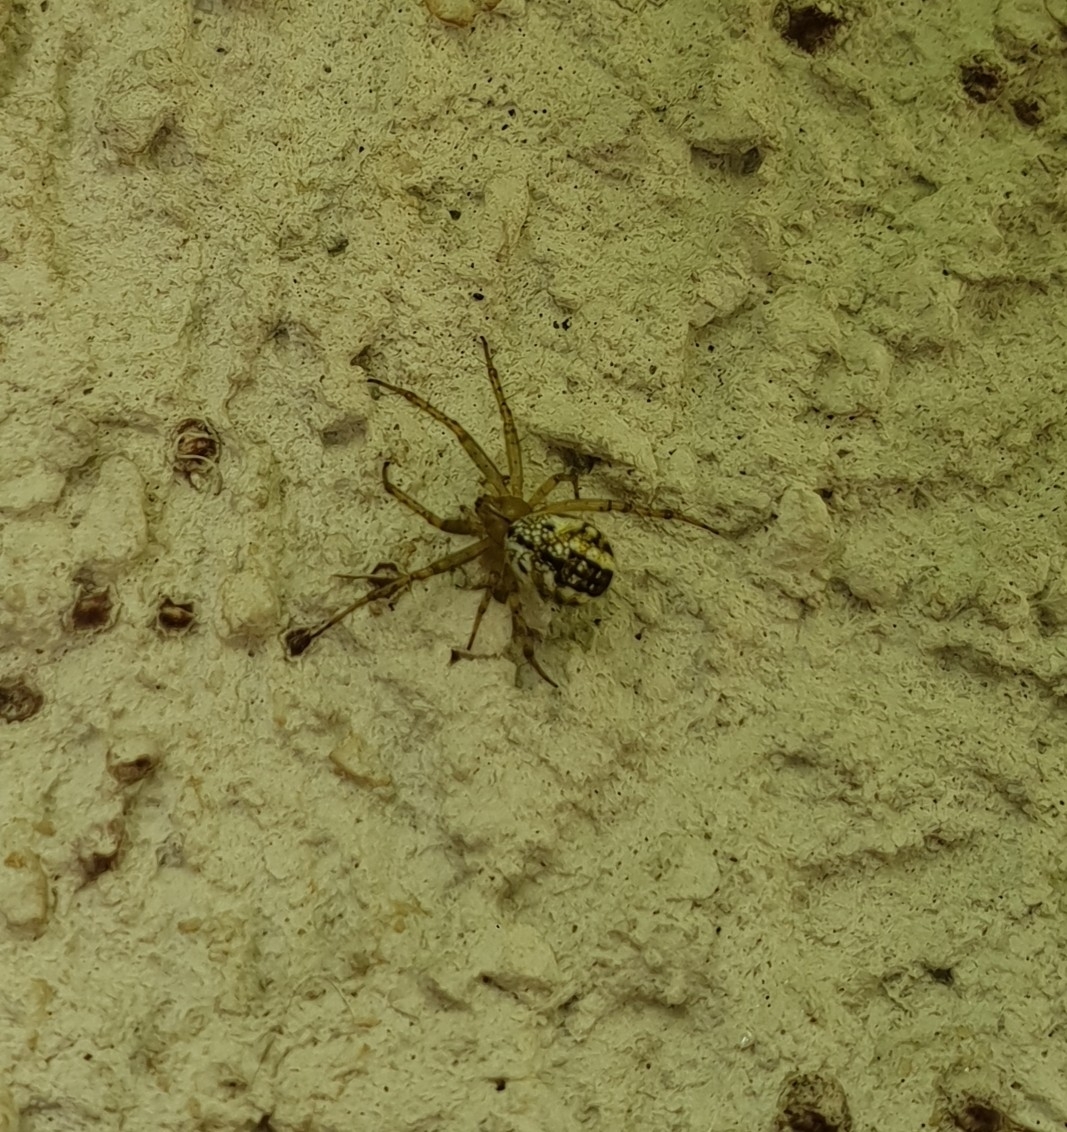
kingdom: Animalia
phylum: Arthropoda
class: Arachnida
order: Araneae
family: Araneidae
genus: Mangora
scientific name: Mangora acalypha
